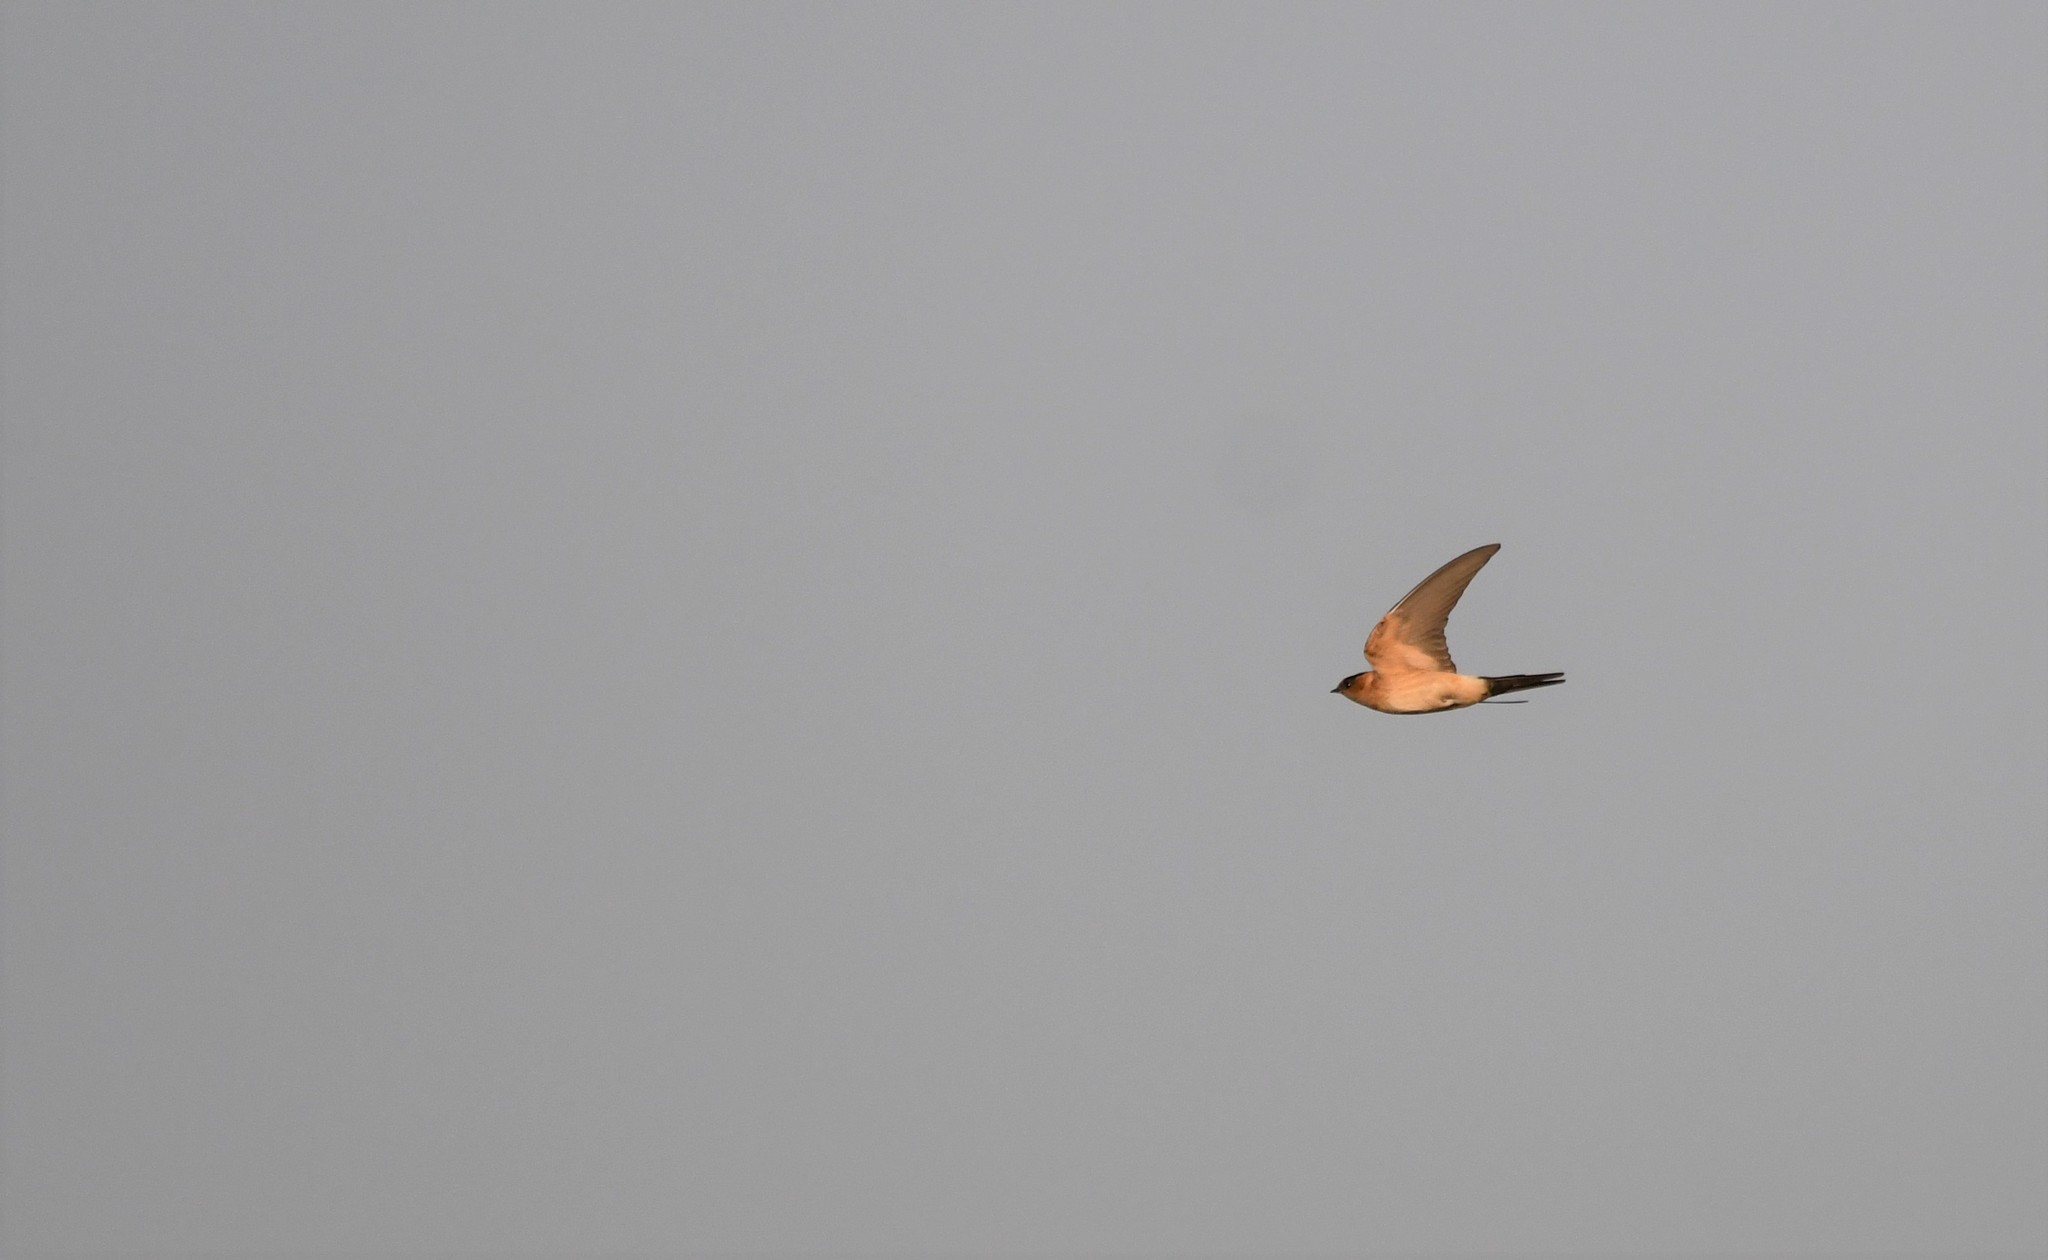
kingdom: Animalia
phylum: Chordata
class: Aves
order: Passeriformes
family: Hirundinidae
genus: Cecropis
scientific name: Cecropis daurica
